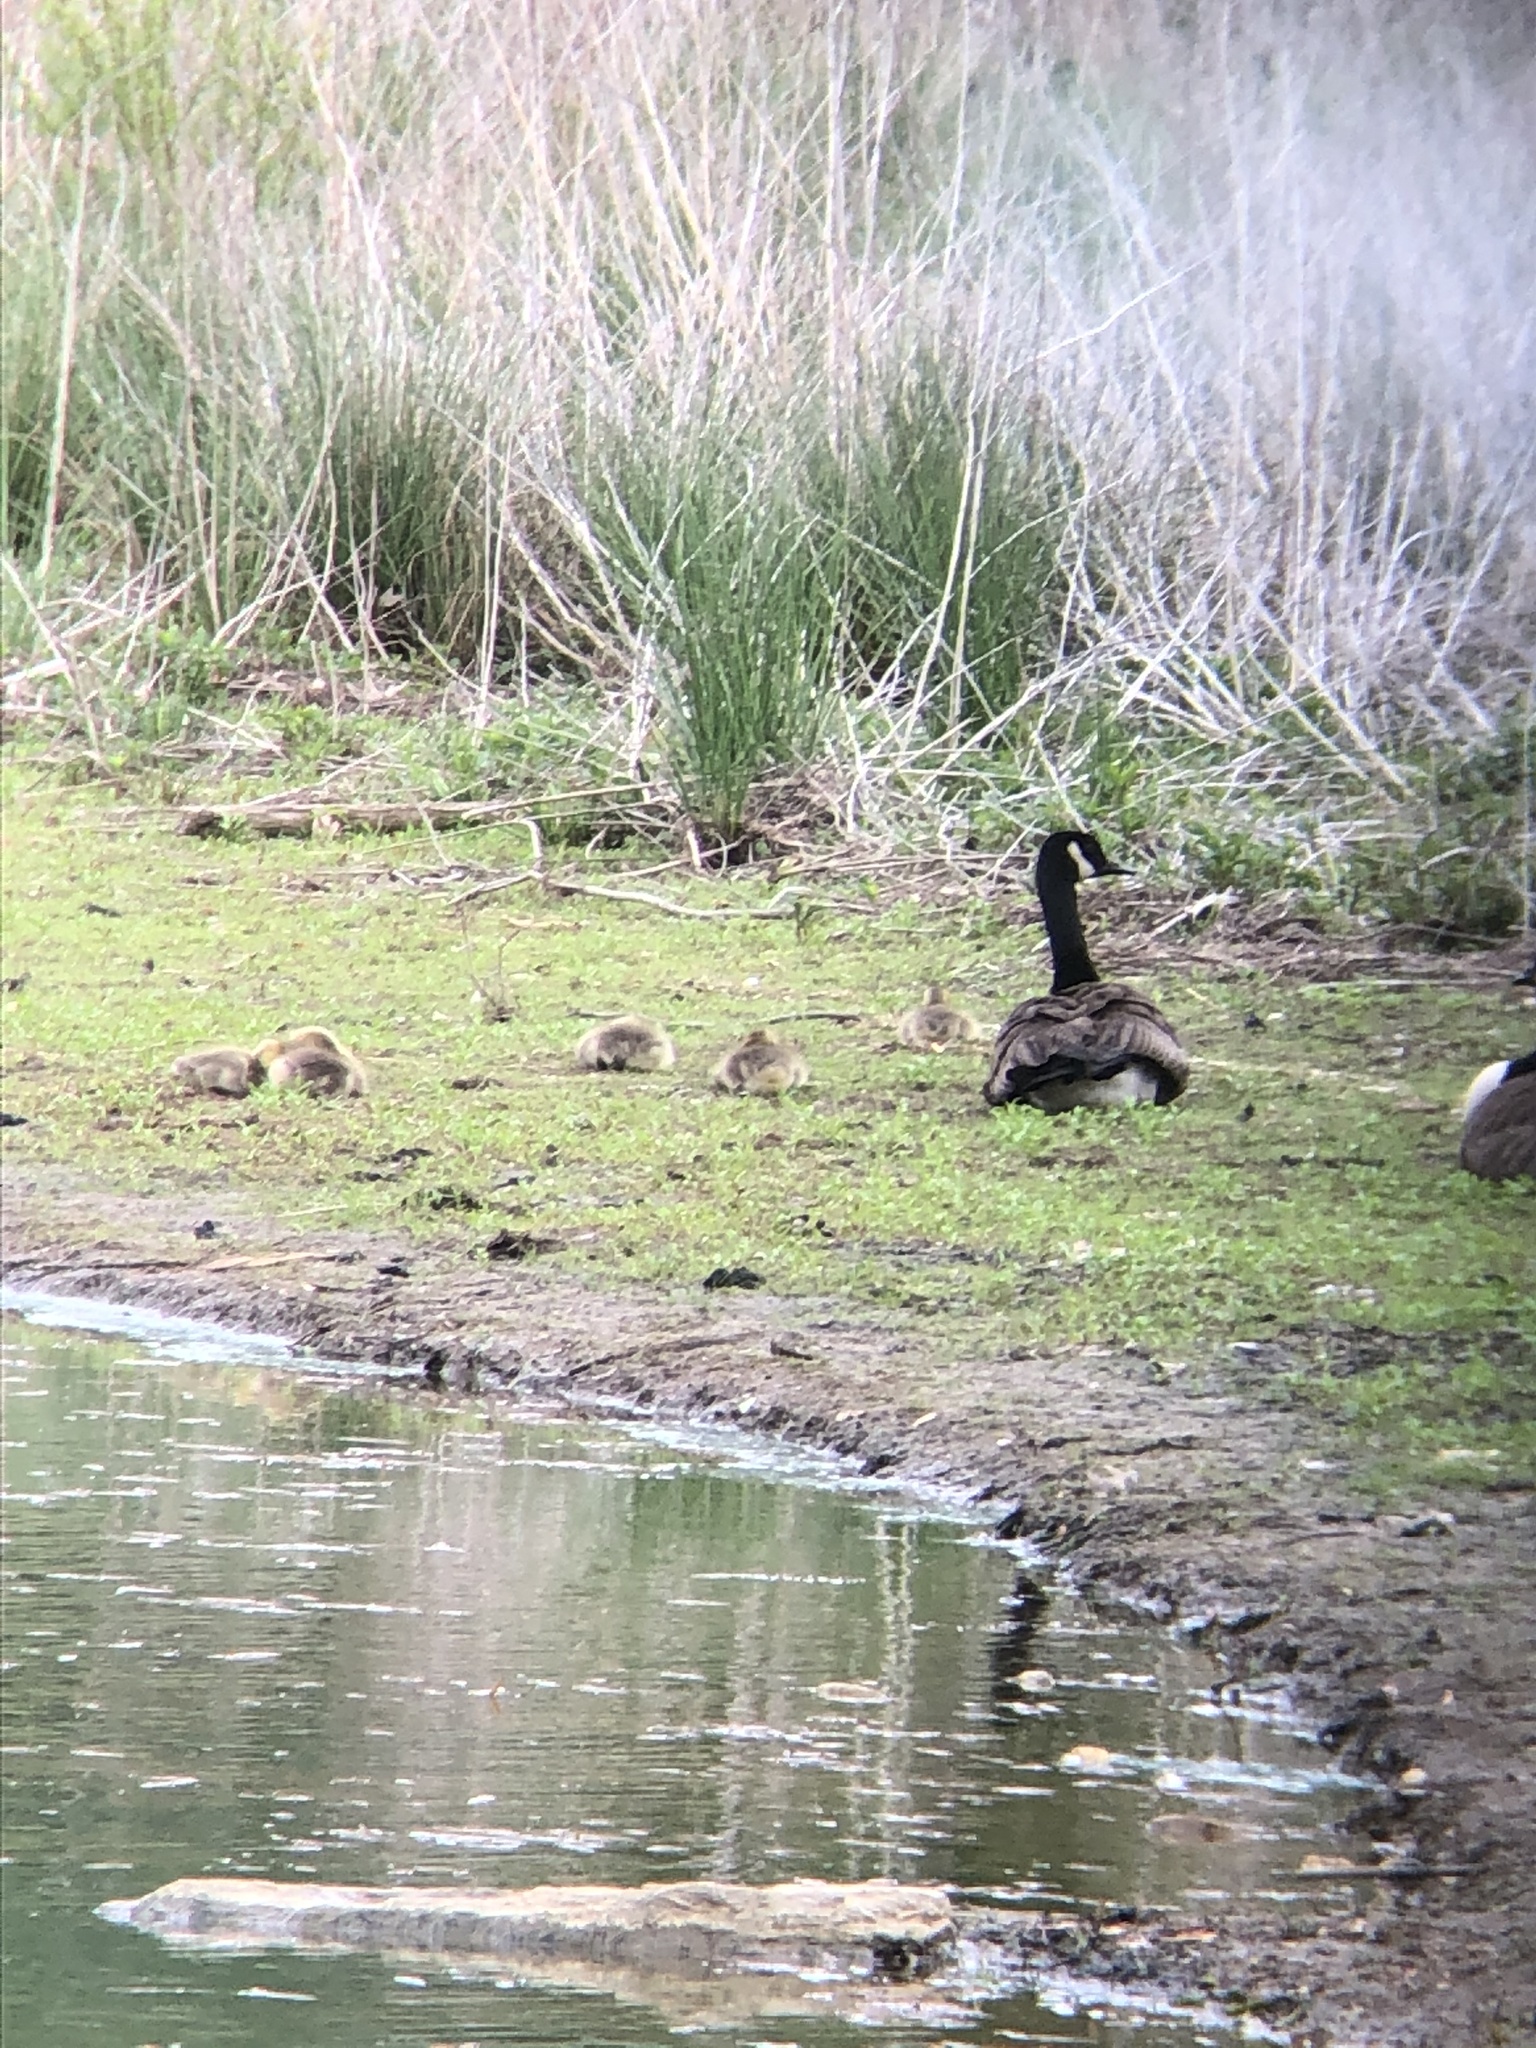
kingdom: Animalia
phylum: Chordata
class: Aves
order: Anseriformes
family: Anatidae
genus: Branta
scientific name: Branta canadensis
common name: Canada goose
